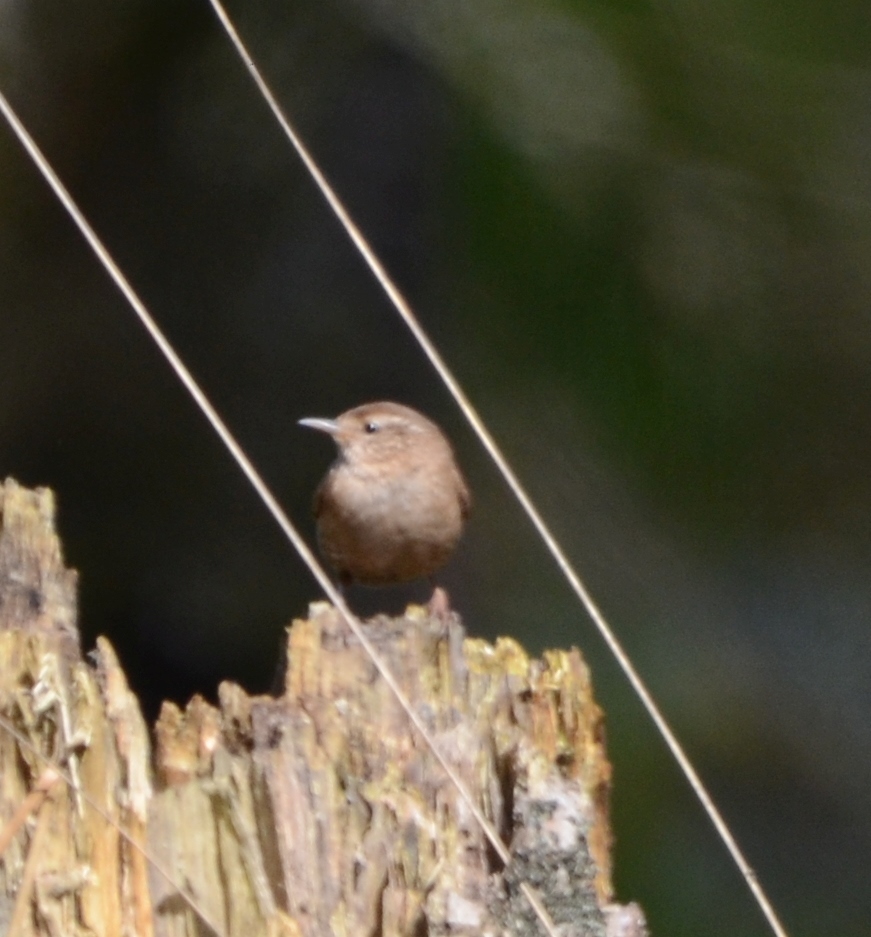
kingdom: Animalia
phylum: Chordata
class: Aves
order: Passeriformes
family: Troglodytidae
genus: Troglodytes
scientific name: Troglodytes troglodytes
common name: Eurasian wren
